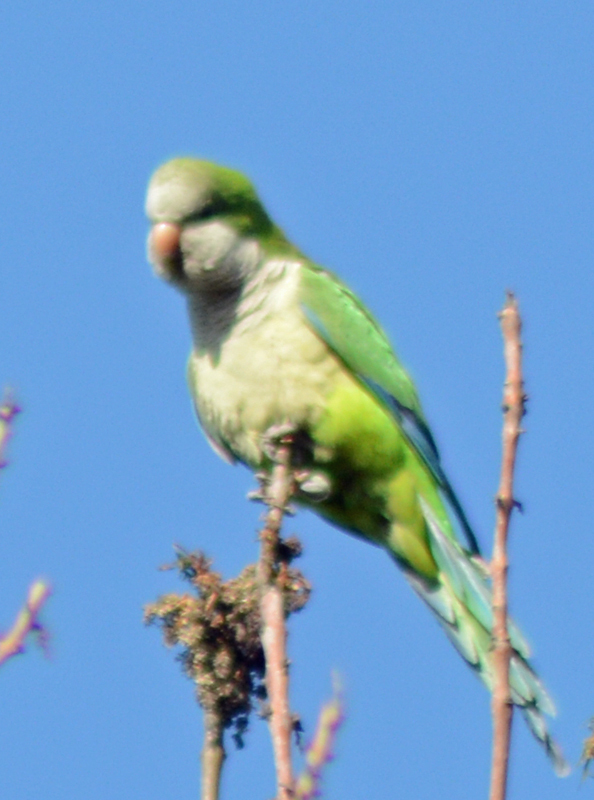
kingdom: Animalia
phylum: Chordata
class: Aves
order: Psittaciformes
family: Psittacidae
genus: Myiopsitta
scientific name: Myiopsitta monachus
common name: Monk parakeet
